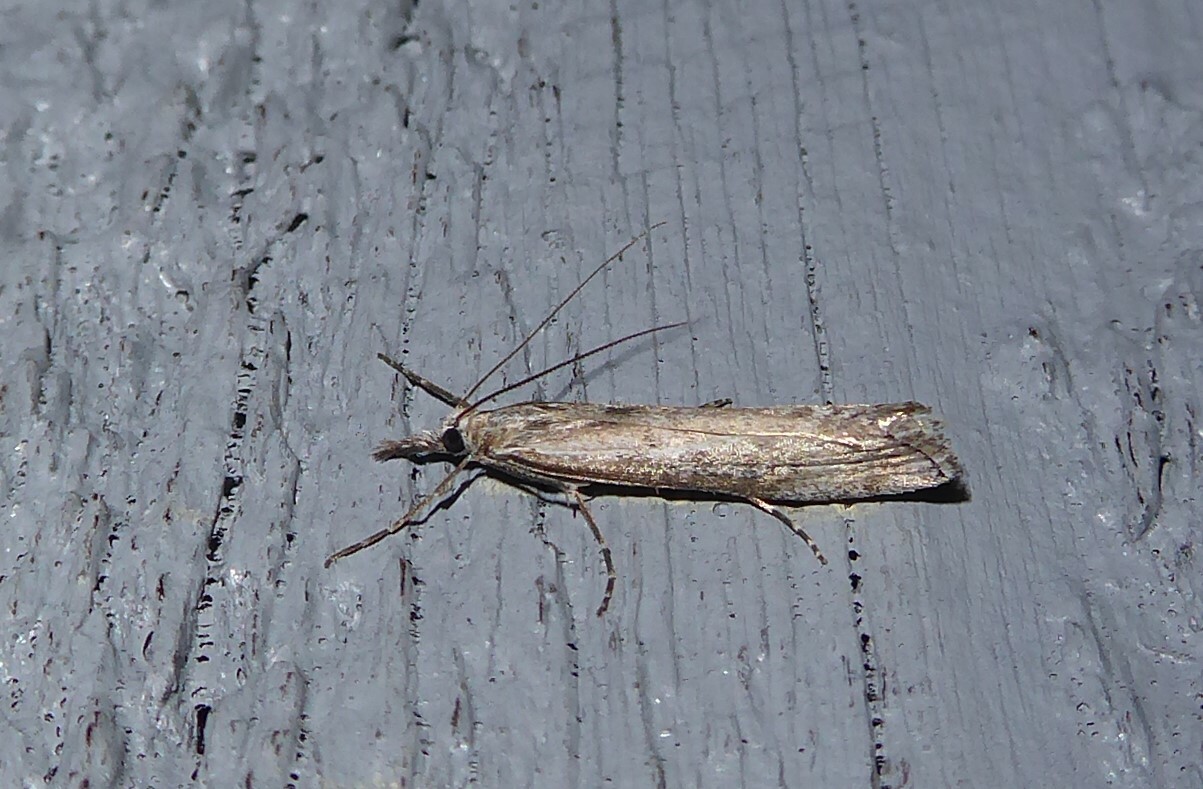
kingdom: Animalia
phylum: Arthropoda
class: Insecta
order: Lepidoptera
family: Crambidae
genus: Orocrambus
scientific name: Orocrambus cyclopicus
